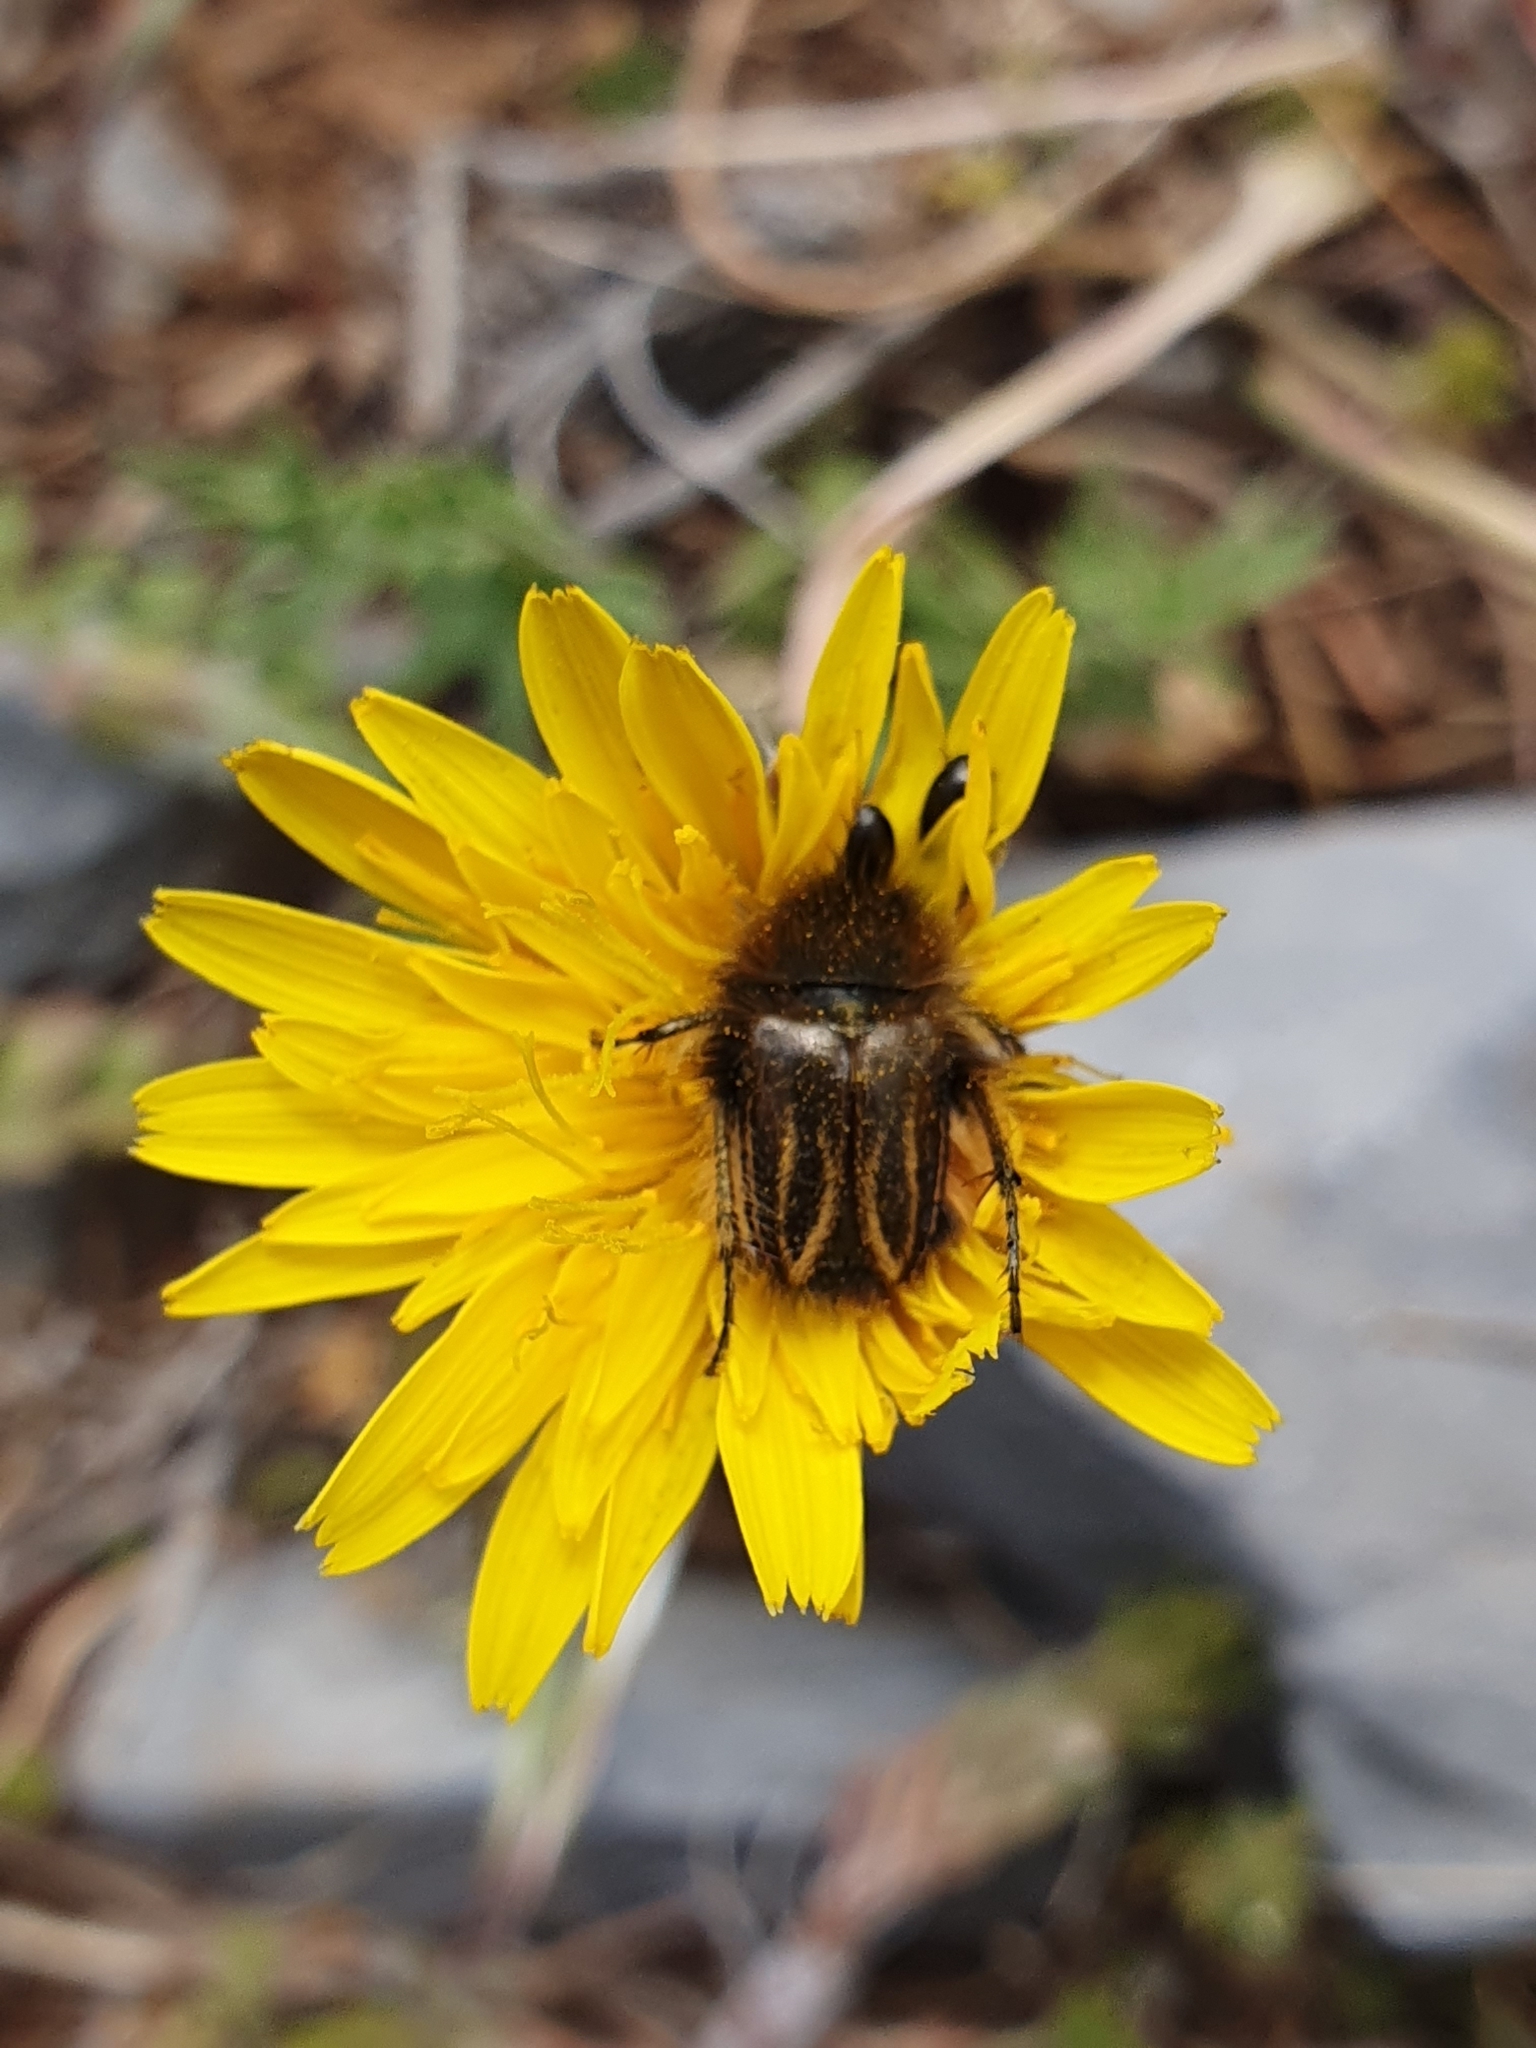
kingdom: Animalia
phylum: Arthropoda
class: Insecta
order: Coleoptera
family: Glaphyridae
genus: Eulasia
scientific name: Eulasia bombylius
